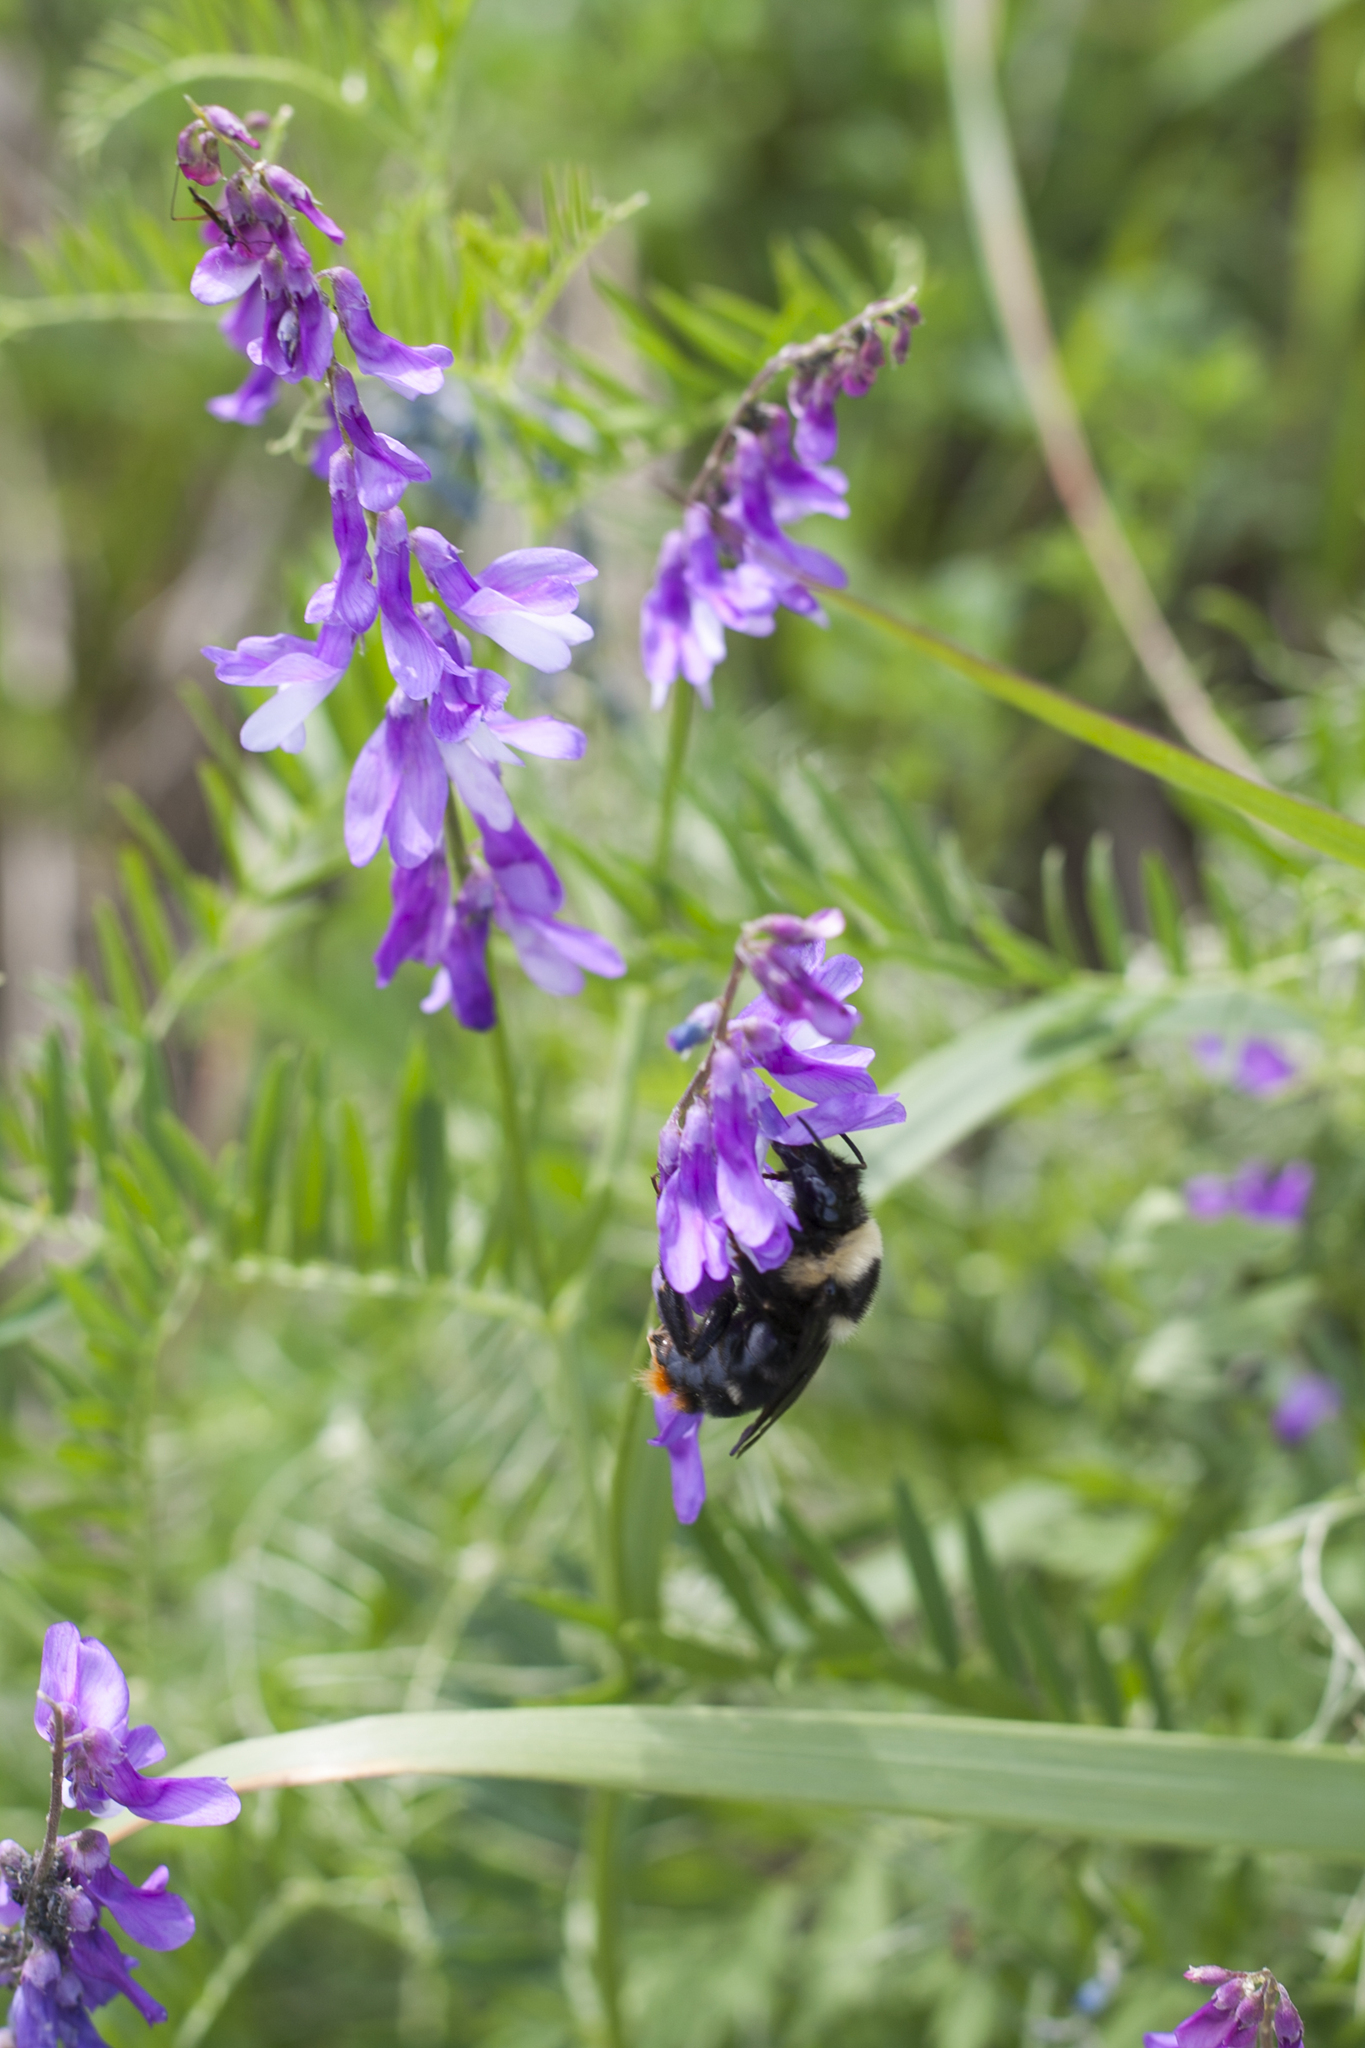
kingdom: Animalia
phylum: Arthropoda
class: Insecta
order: Hymenoptera
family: Apidae
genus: Bombus
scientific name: Bombus rupestris
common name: Hill cuckoo-bee
